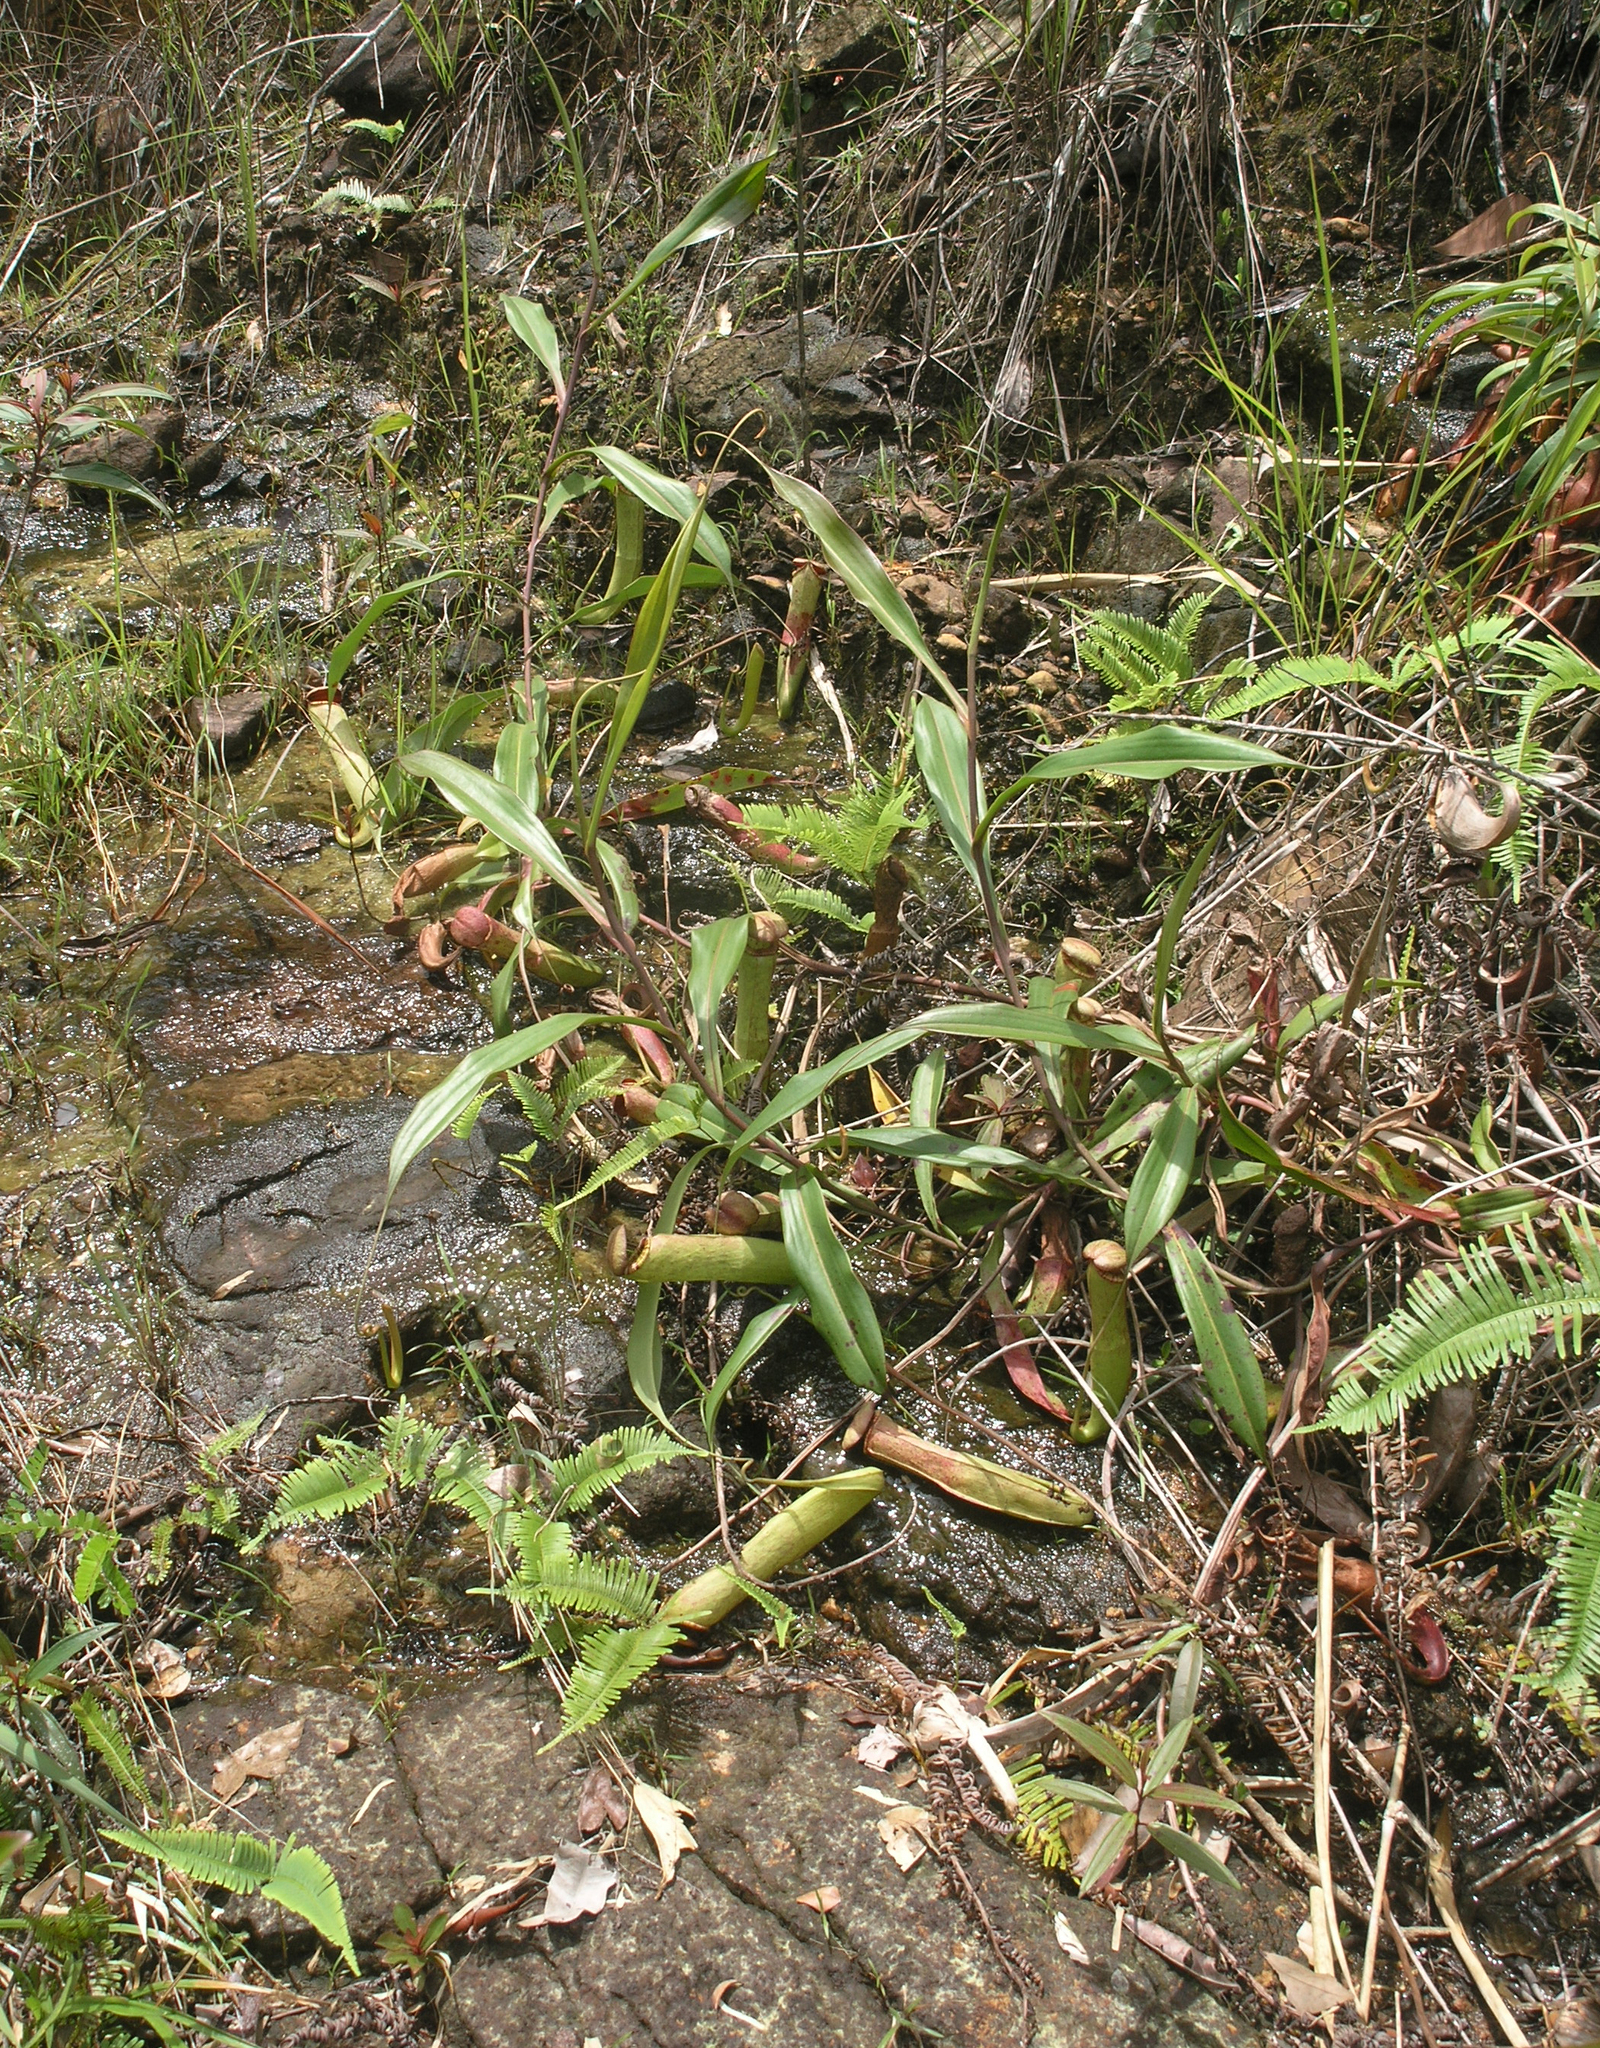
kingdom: Plantae
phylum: Tracheophyta
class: Magnoliopsida
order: Caryophyllales
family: Nepenthaceae
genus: Nepenthes
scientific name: Nepenthes kampotiana
